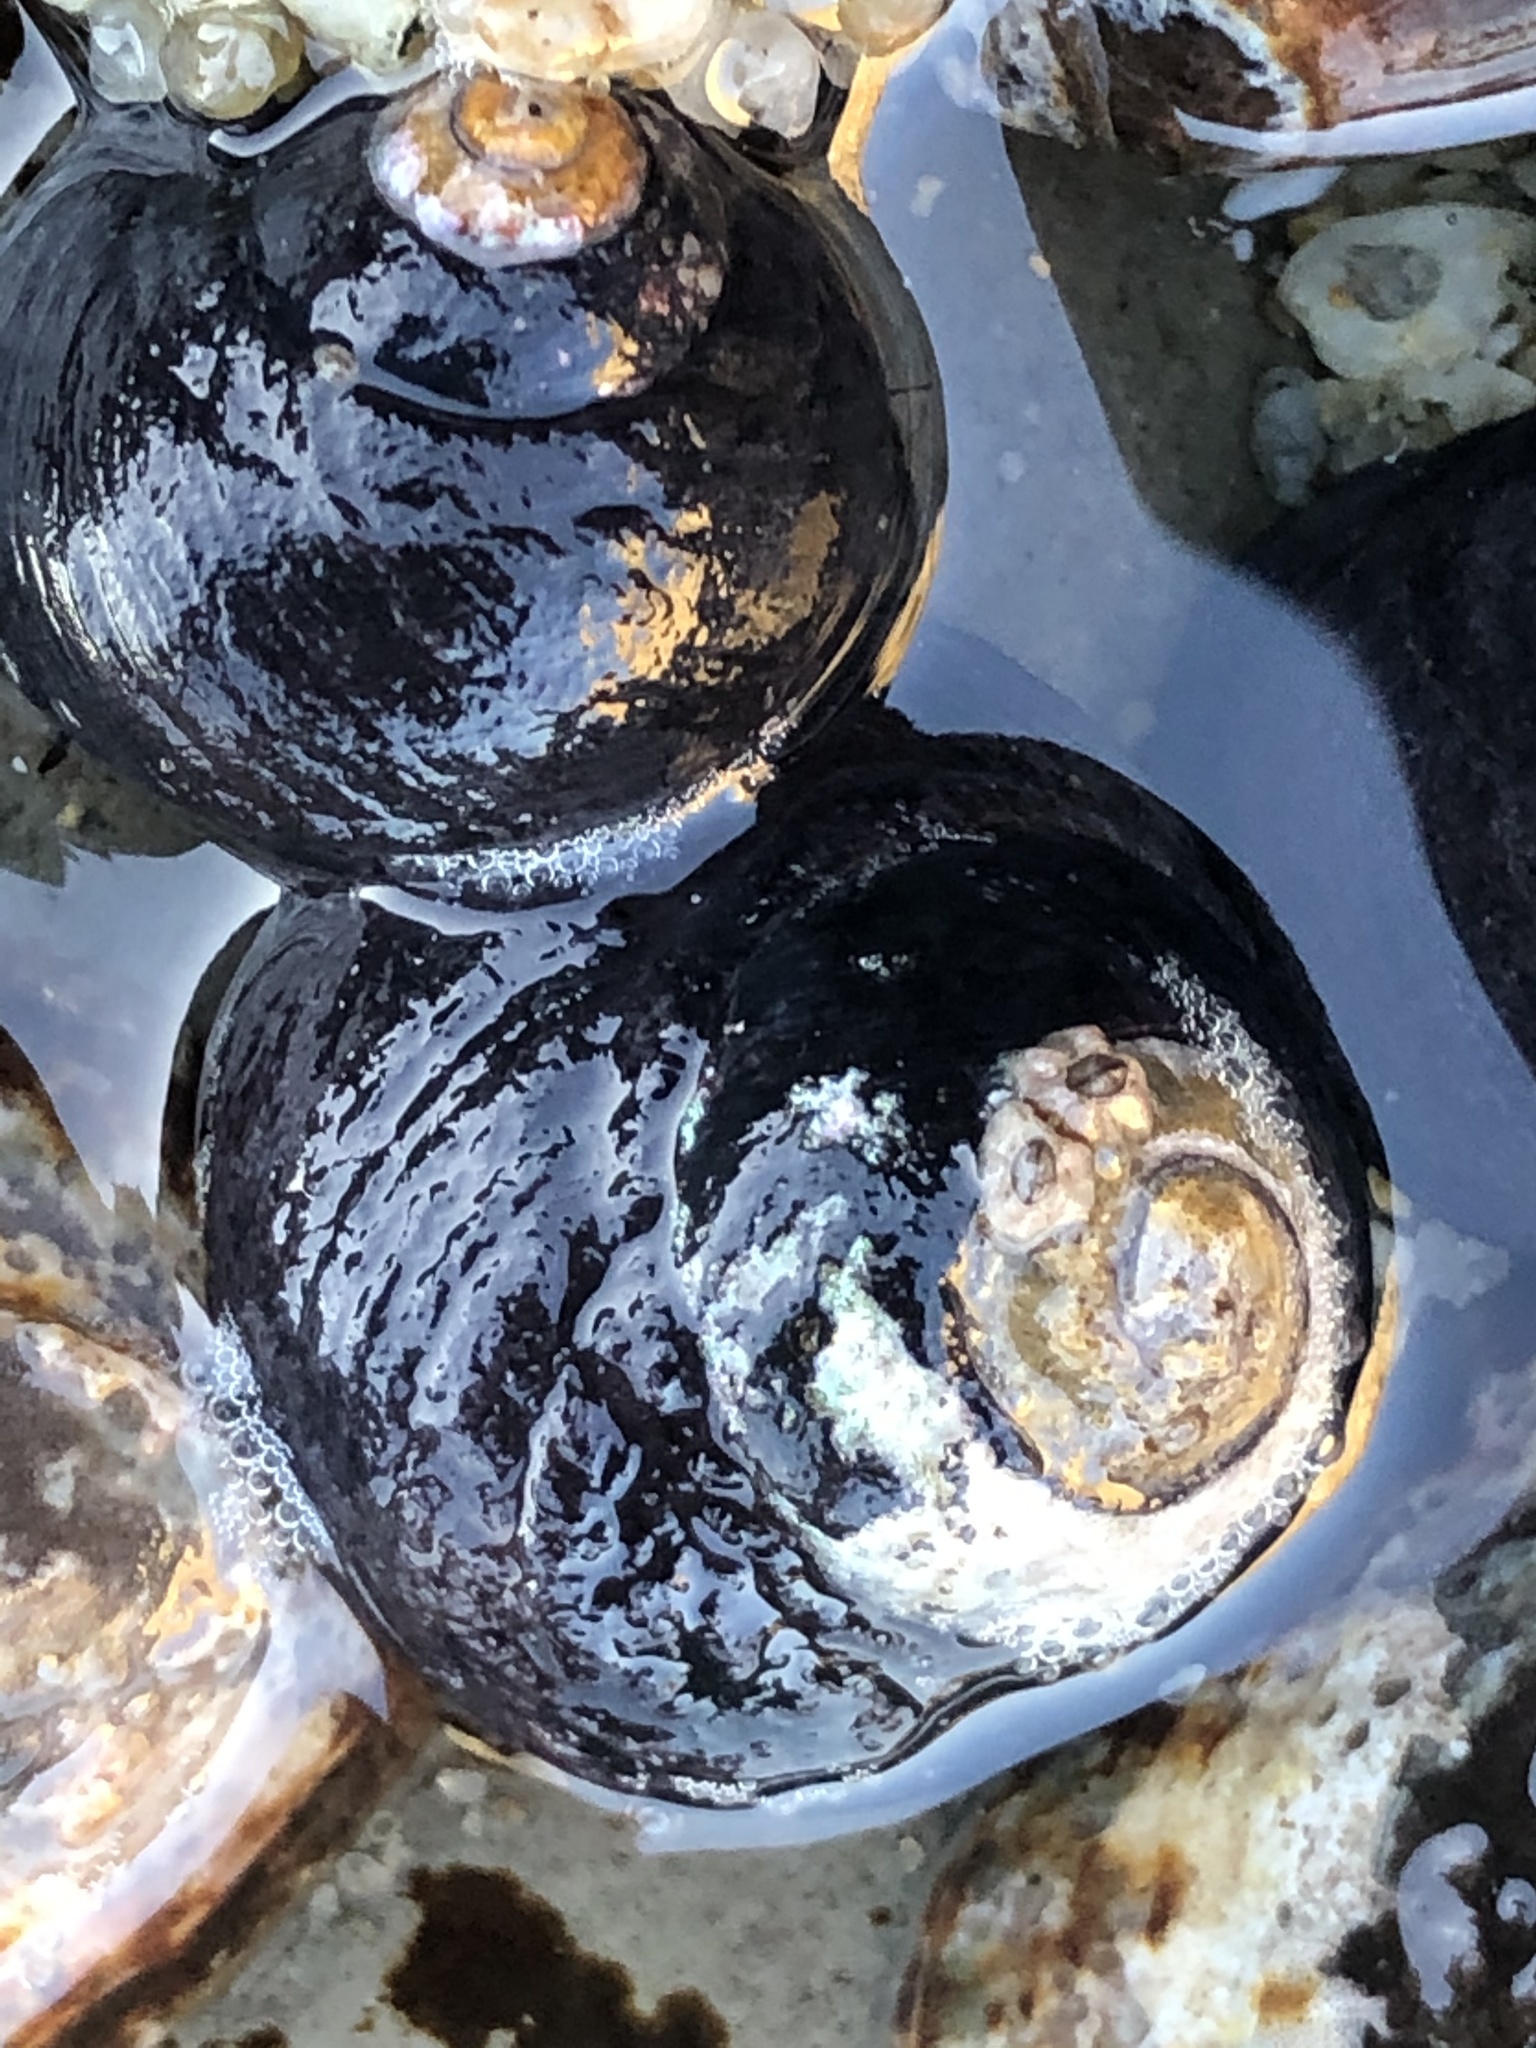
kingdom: Animalia
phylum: Mollusca
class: Gastropoda
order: Trochida
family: Tegulidae
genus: Tegula
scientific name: Tegula funebralis
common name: Black tegula
